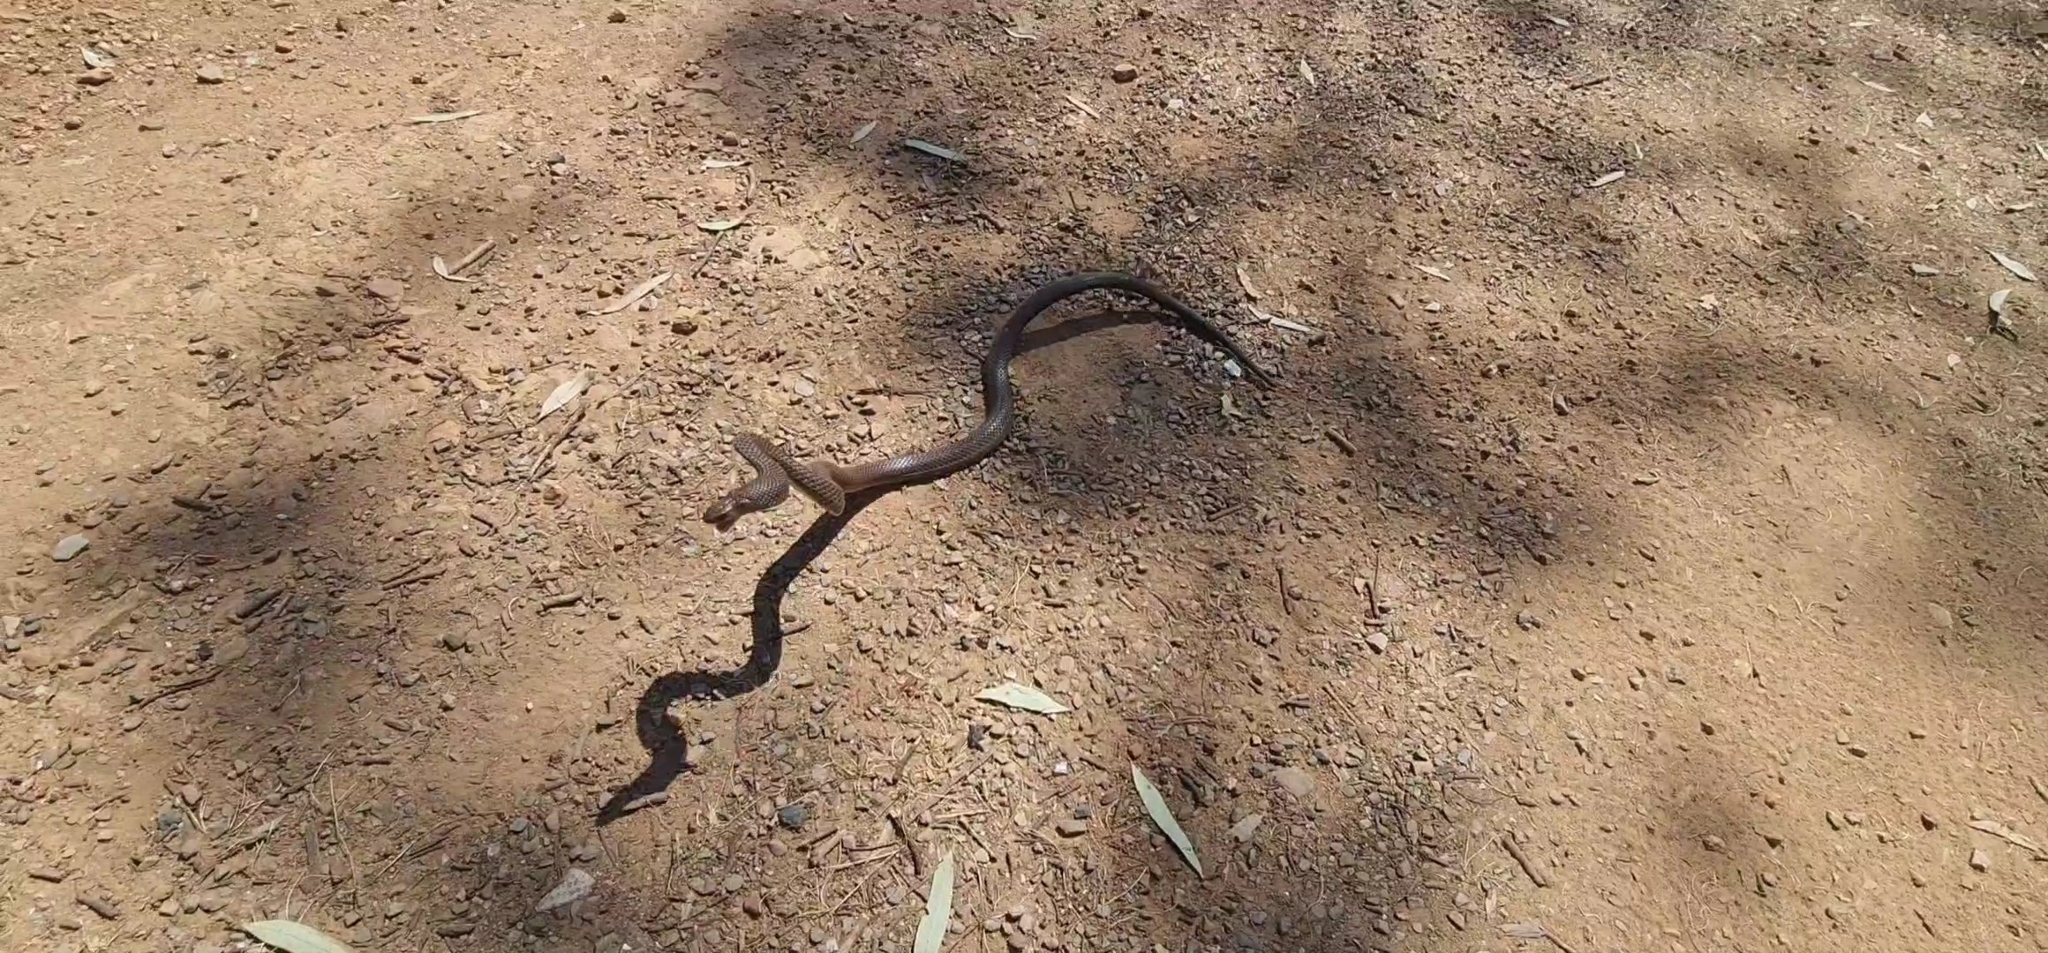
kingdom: Animalia
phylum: Chordata
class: Squamata
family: Elapidae
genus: Pseudonaja
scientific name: Pseudonaja textilis
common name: Eastern brown snake
